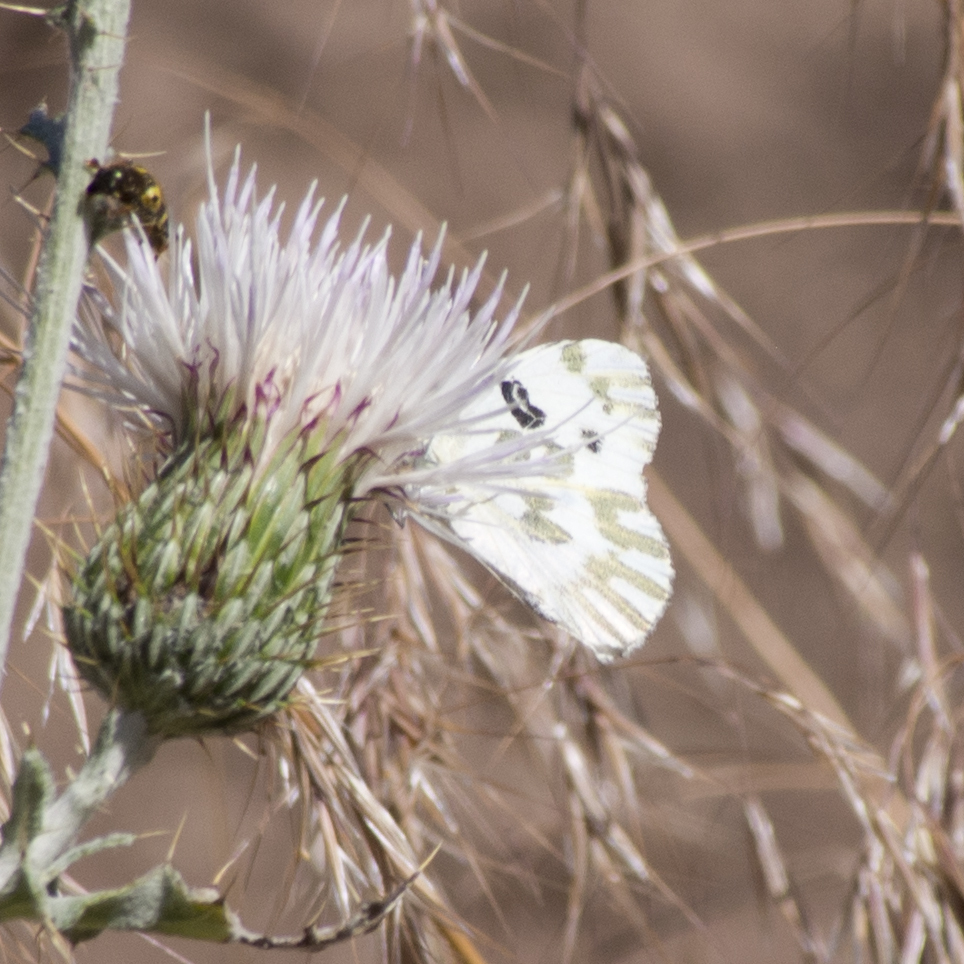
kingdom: Animalia
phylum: Arthropoda
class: Insecta
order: Lepidoptera
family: Pieridae
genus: Pontia
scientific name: Pontia beckerii
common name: Becker's white
